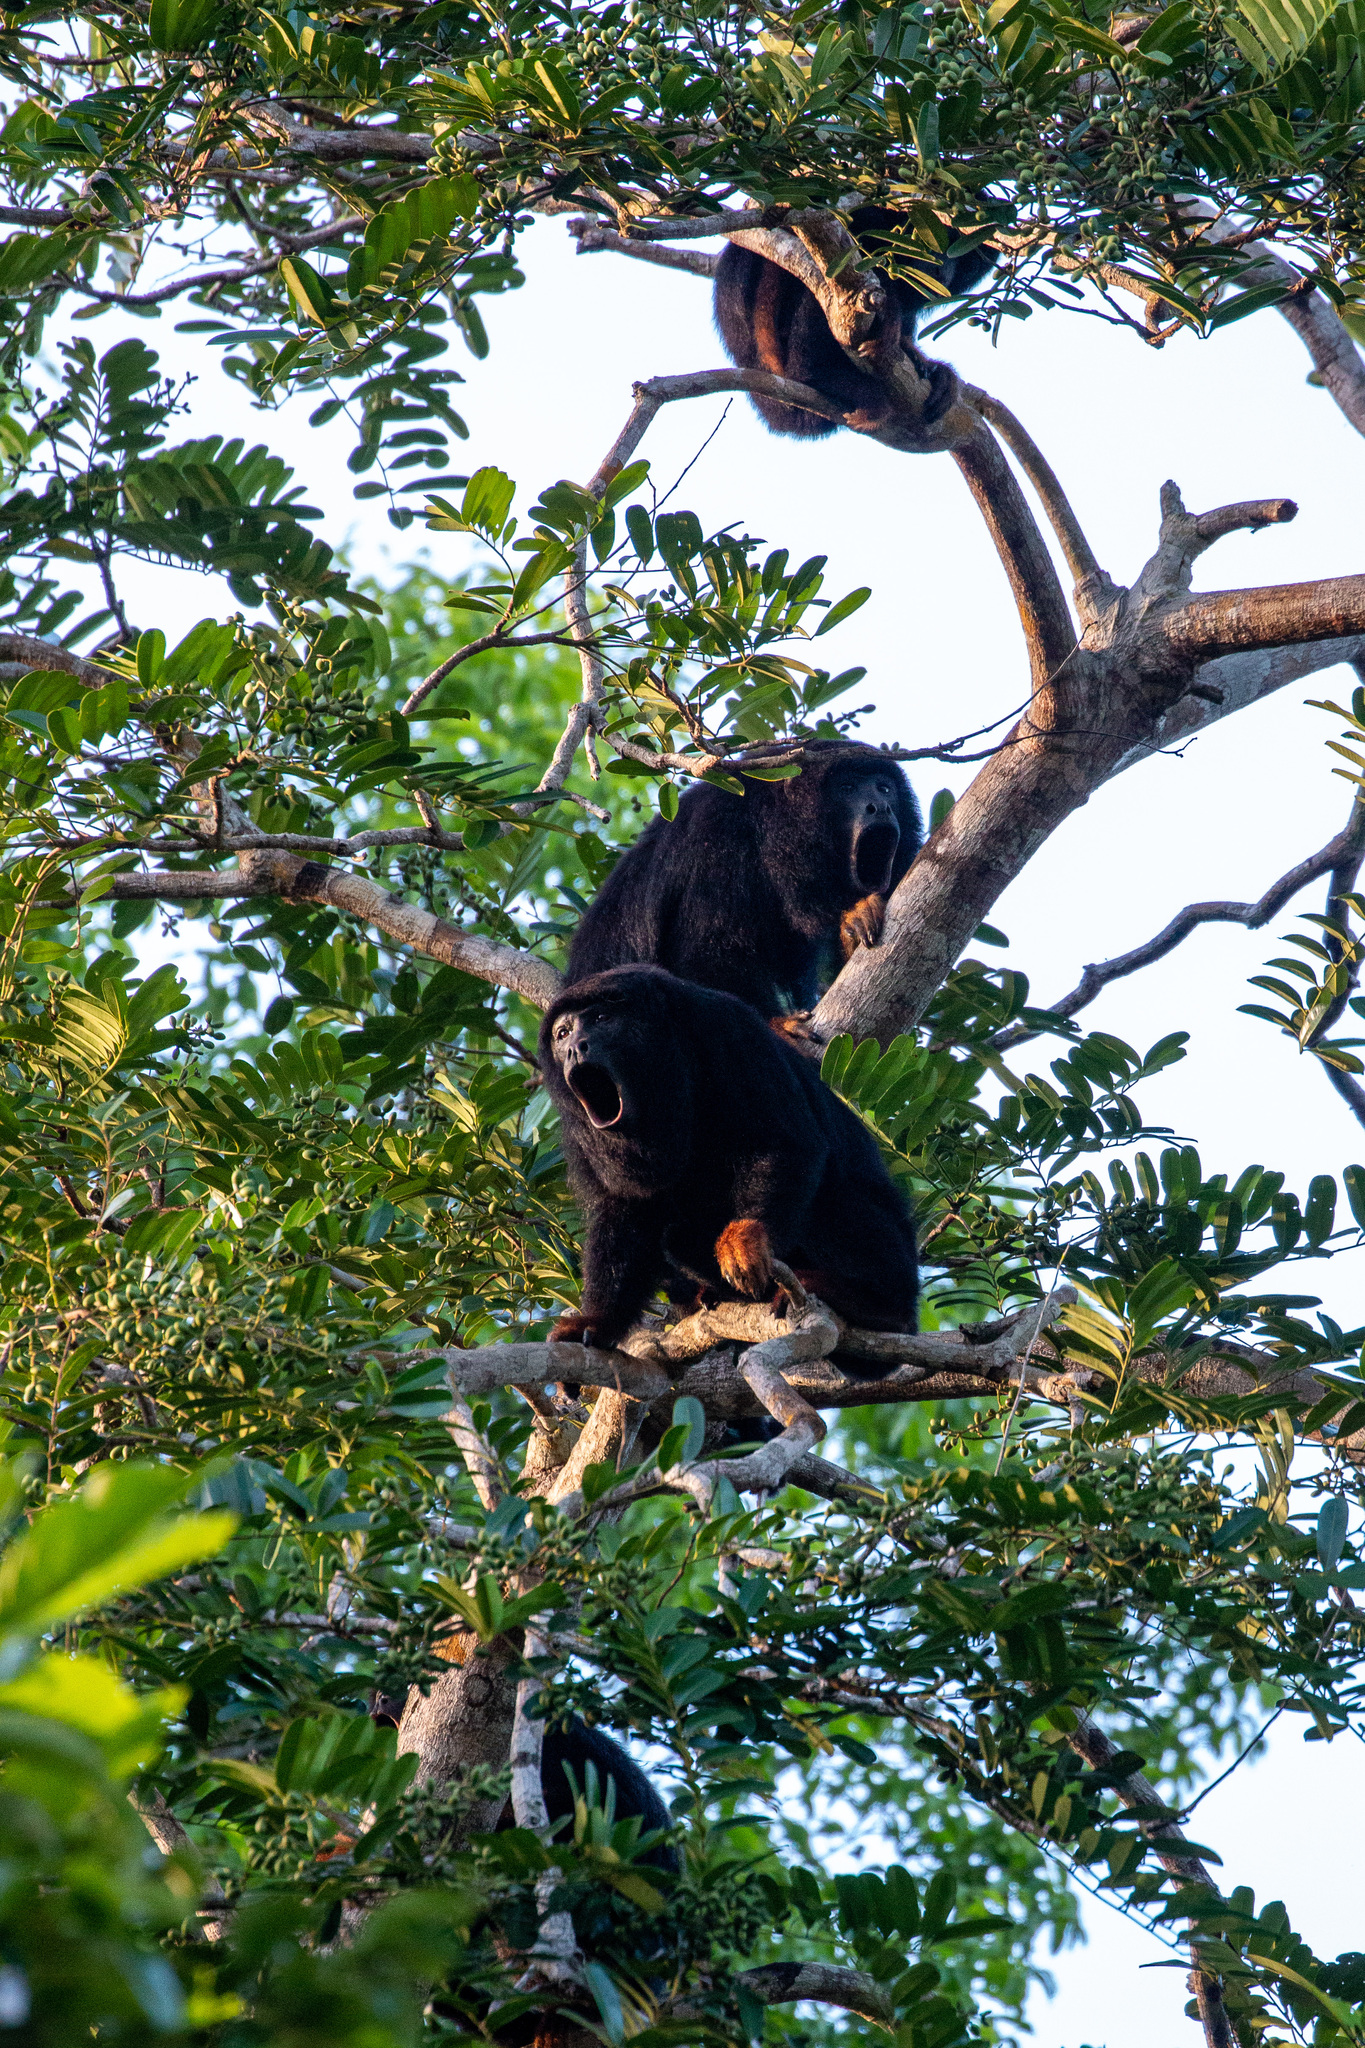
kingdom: Animalia
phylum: Chordata
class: Mammalia
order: Primates
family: Atelidae
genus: Alouatta
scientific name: Alouatta belzebul
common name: Red-handed howler
